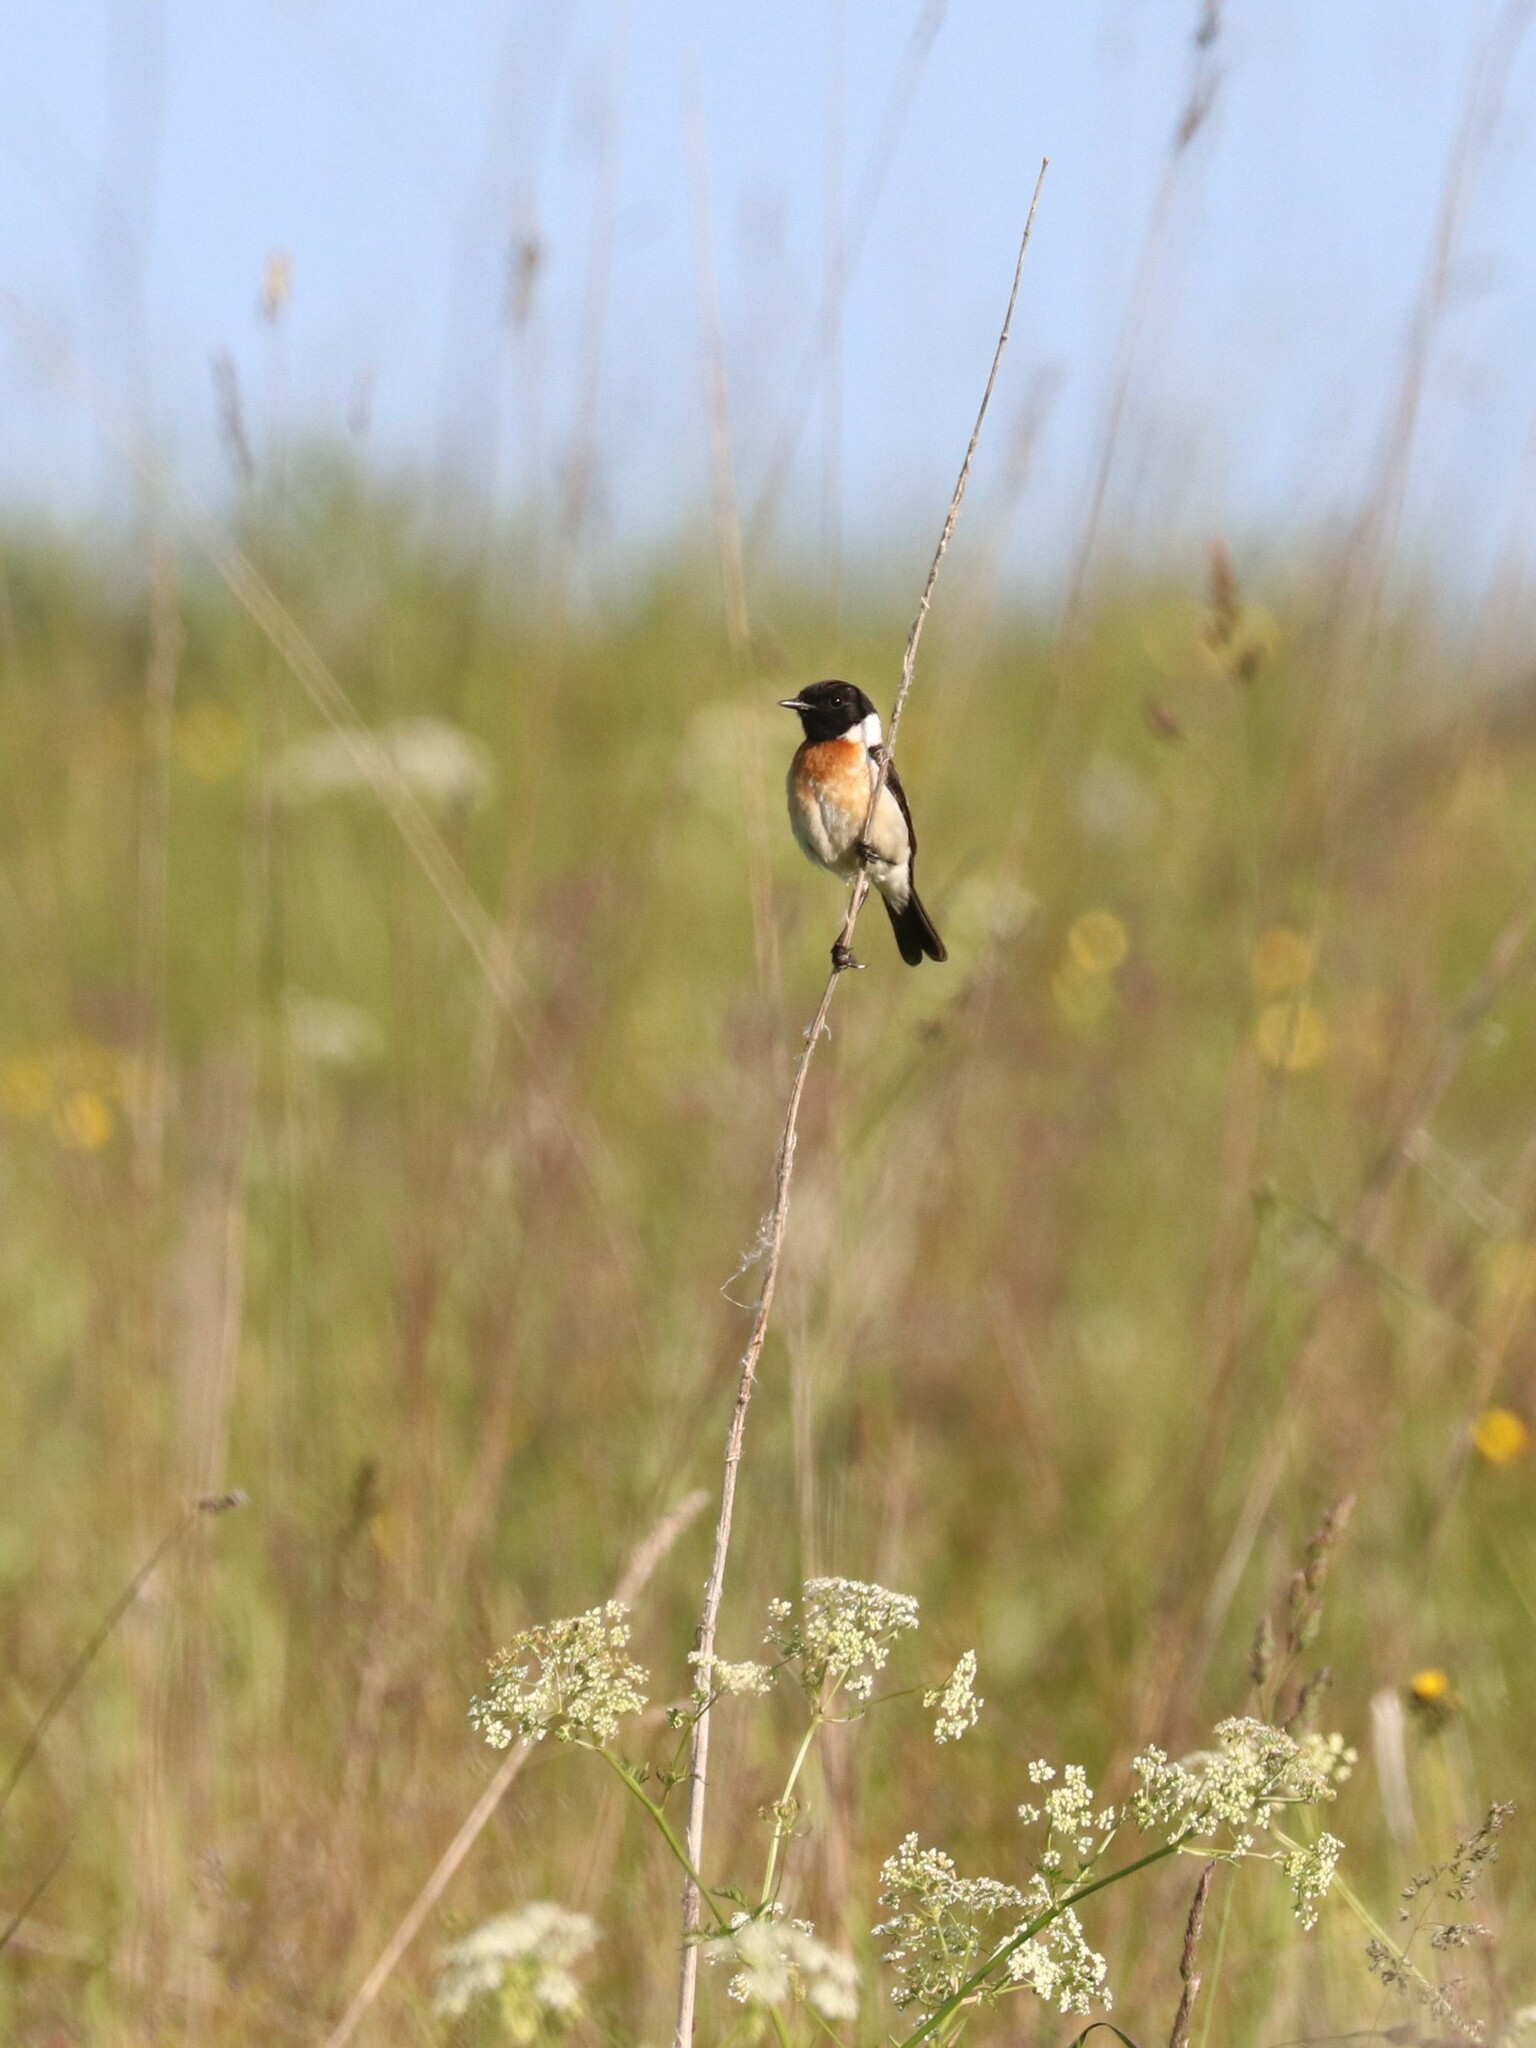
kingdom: Animalia
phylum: Chordata
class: Aves
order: Passeriformes
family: Muscicapidae
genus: Saxicola
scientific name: Saxicola maurus
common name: Siberian stonechat
